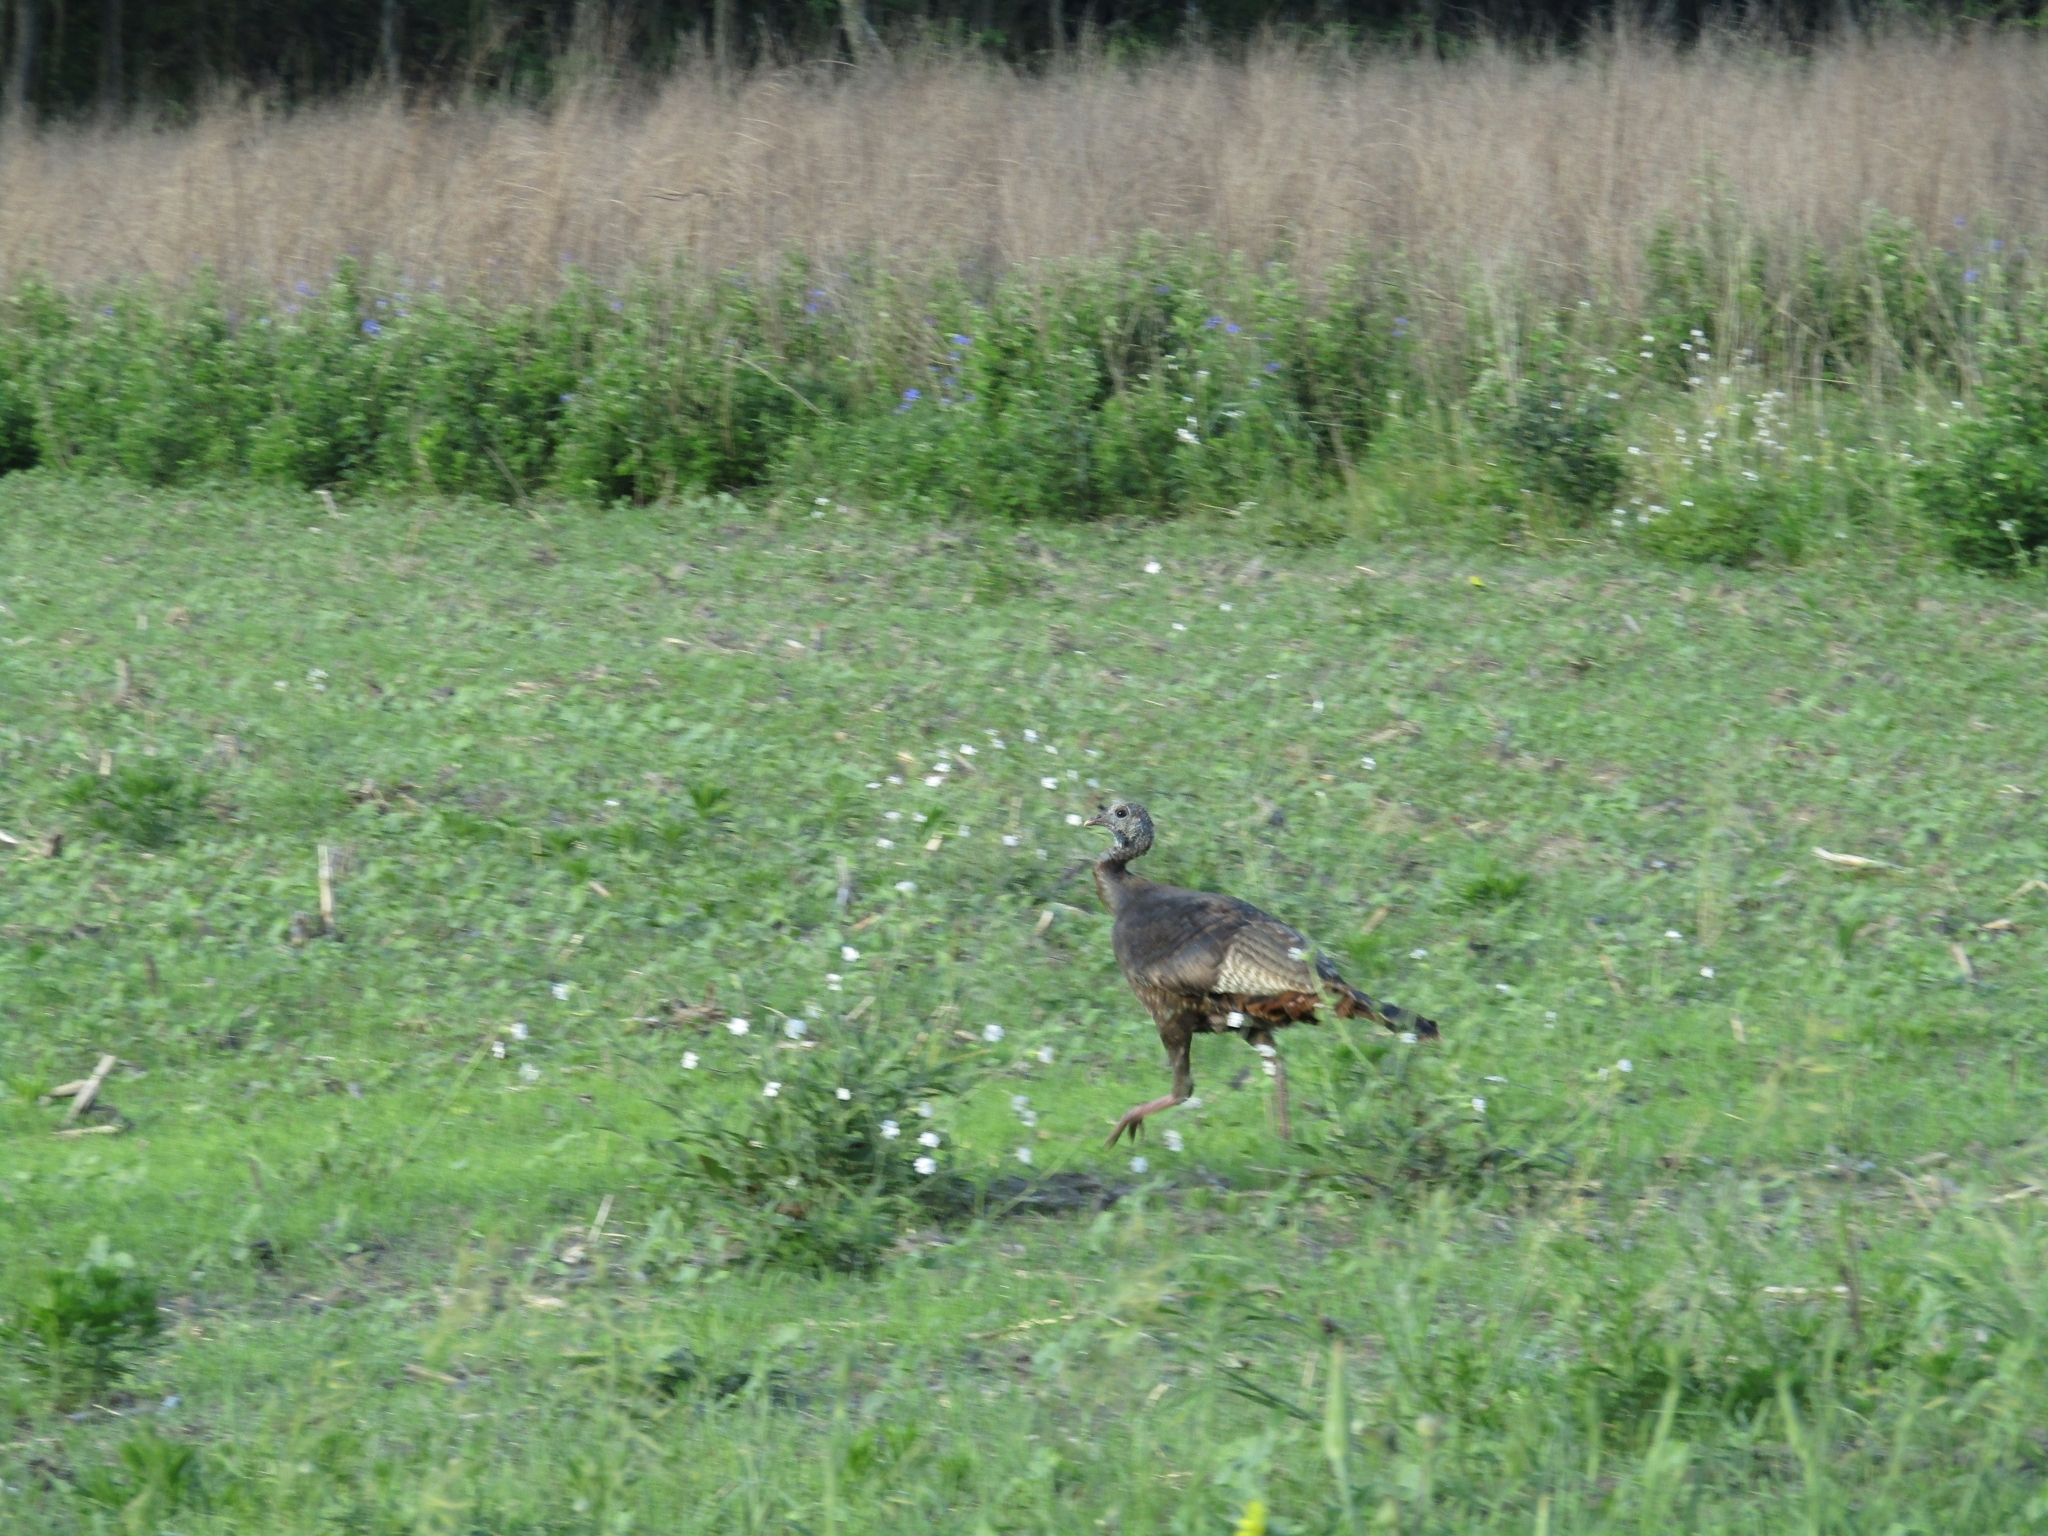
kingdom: Animalia
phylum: Chordata
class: Aves
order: Galliformes
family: Phasianidae
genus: Meleagris
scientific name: Meleagris gallopavo
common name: Wild turkey
